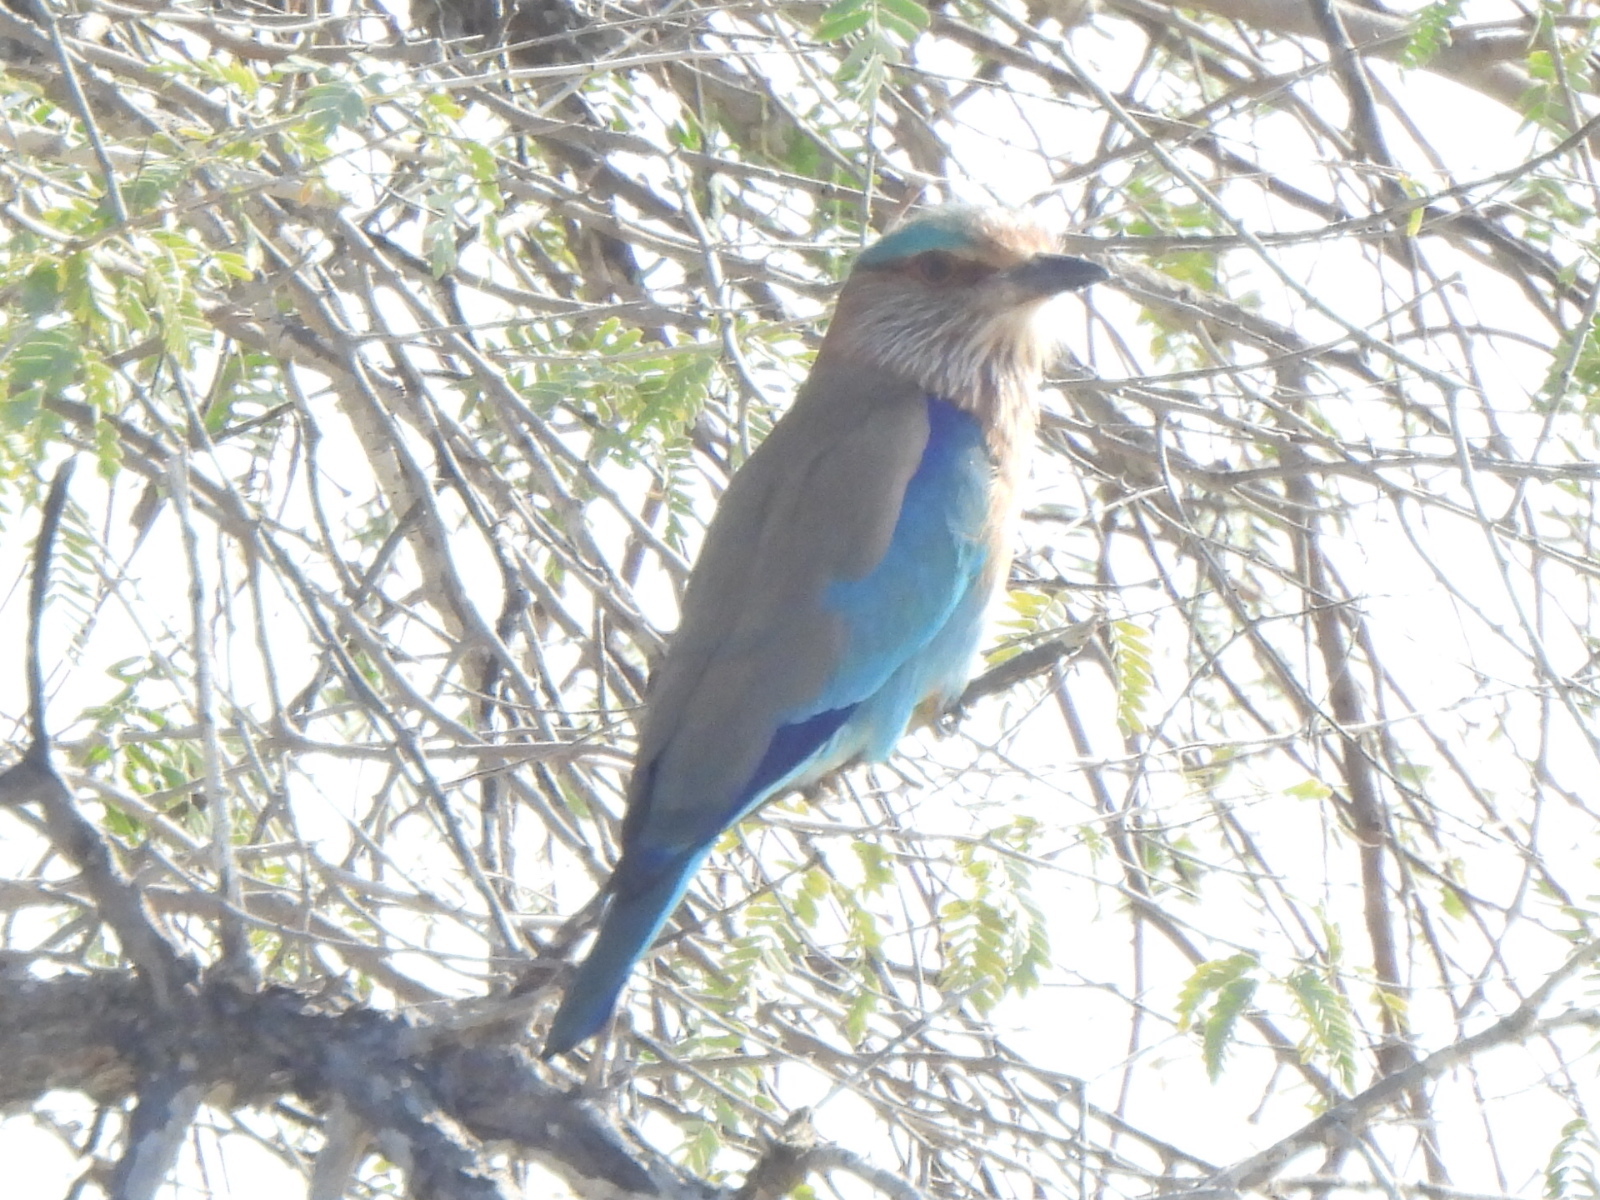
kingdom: Animalia
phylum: Chordata
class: Aves
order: Coraciiformes
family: Coraciidae
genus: Coracias
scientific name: Coracias benghalensis
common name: Indian roller
